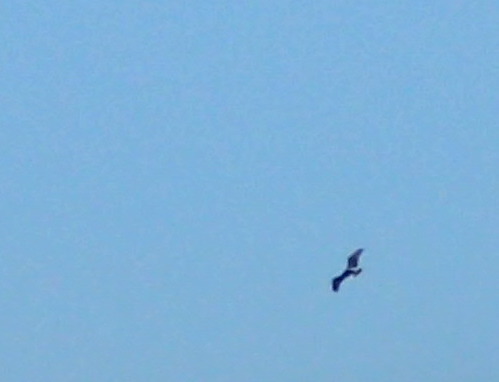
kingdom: Animalia
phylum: Chordata
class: Aves
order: Accipitriformes
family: Pandionidae
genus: Pandion
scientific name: Pandion haliaetus
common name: Osprey
